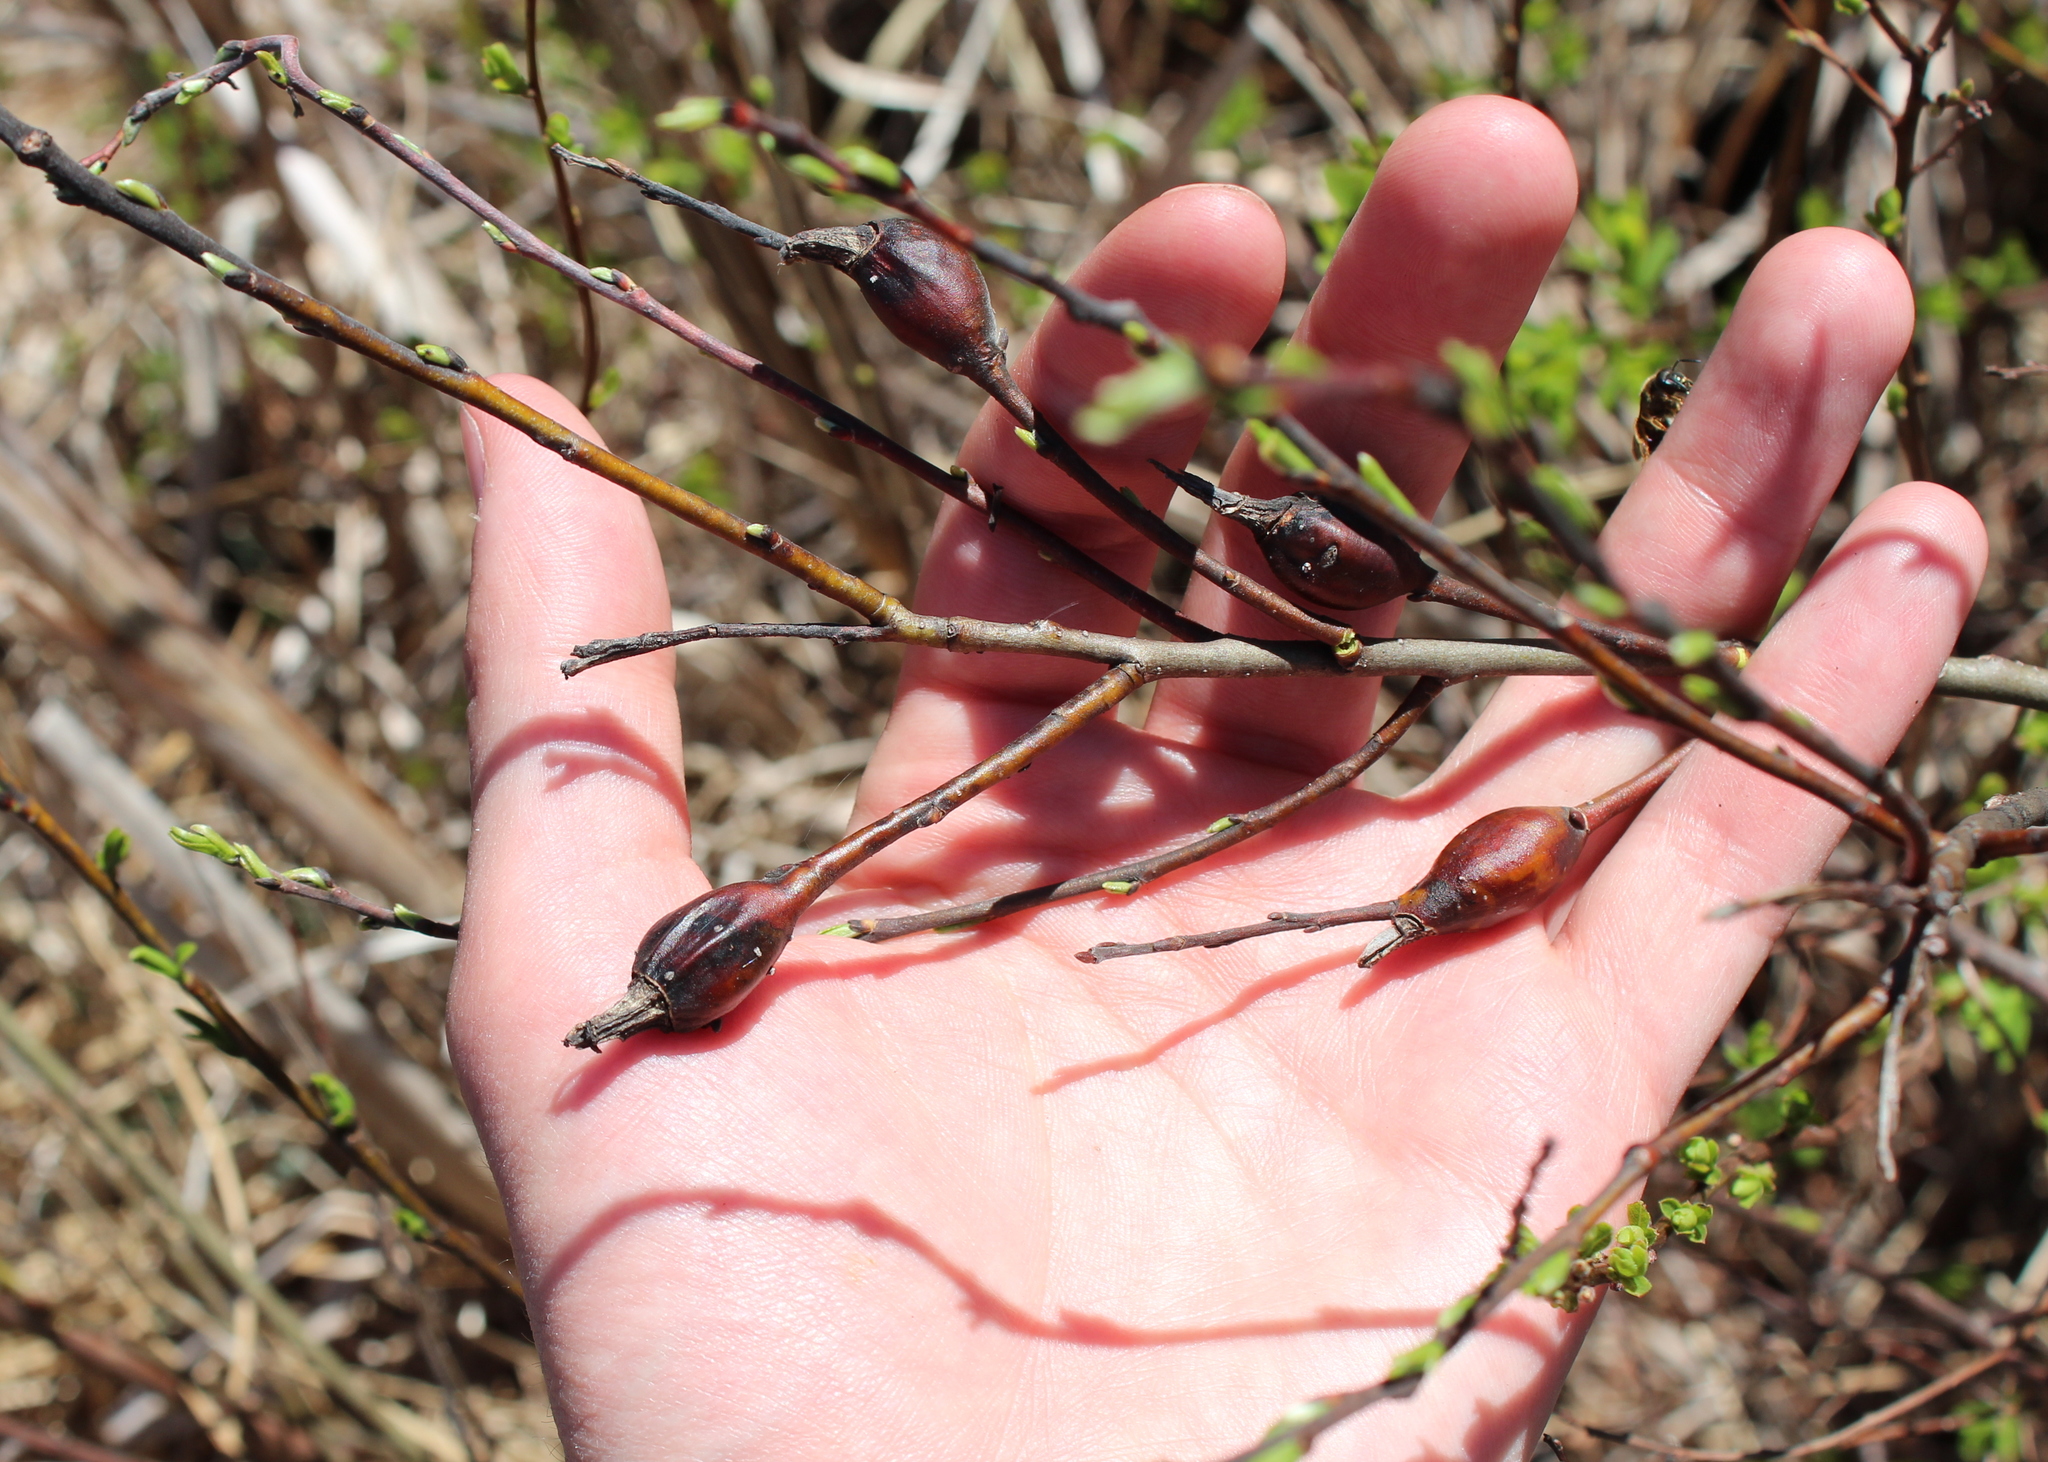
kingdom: Animalia
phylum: Arthropoda
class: Insecta
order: Diptera
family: Cecidomyiidae
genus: Thecodiplosis
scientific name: Thecodiplosis pinirigidae
